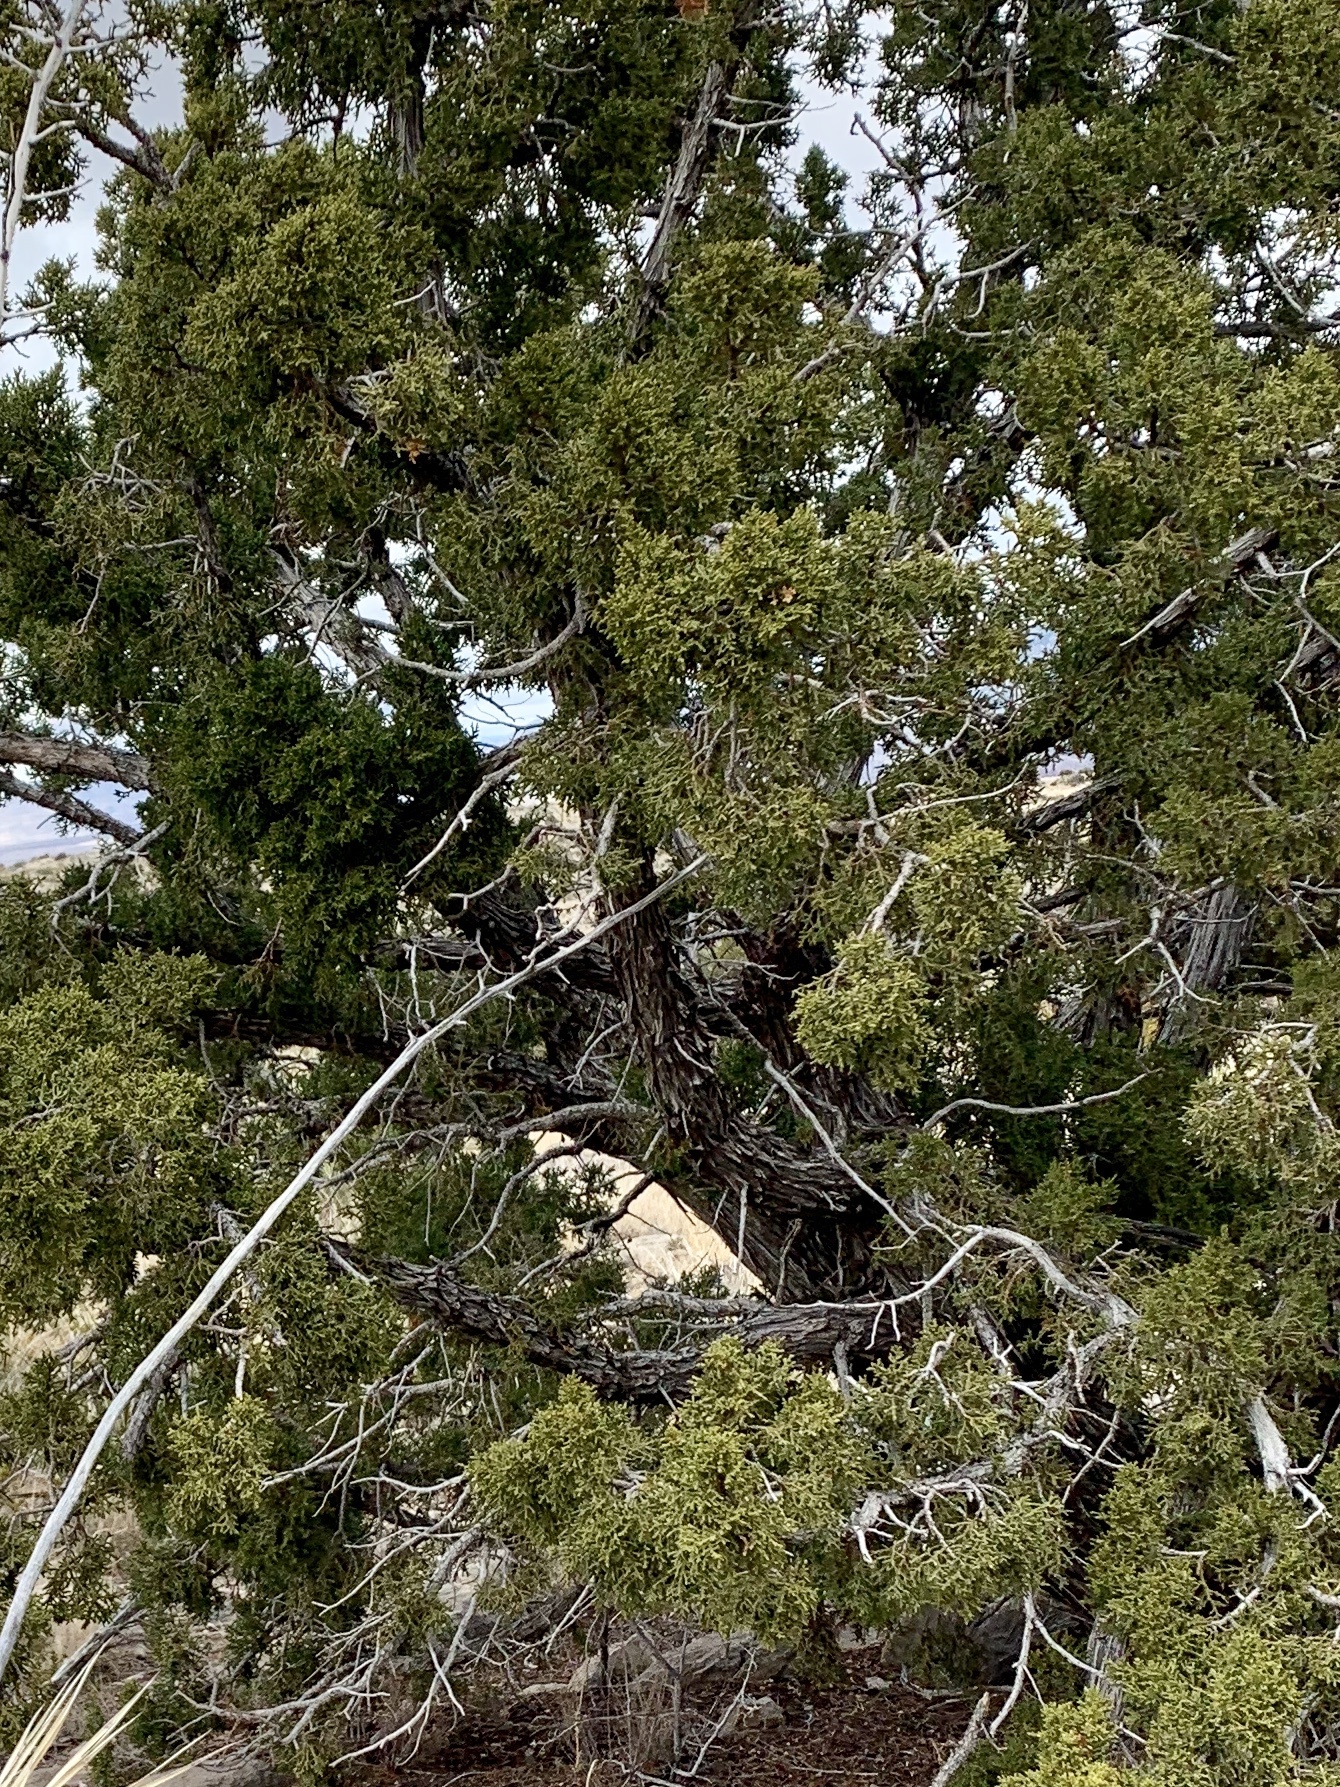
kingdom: Plantae
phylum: Tracheophyta
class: Pinopsida
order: Pinales
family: Cupressaceae
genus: Juniperus
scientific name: Juniperus monosperma
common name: One-seed juniper
